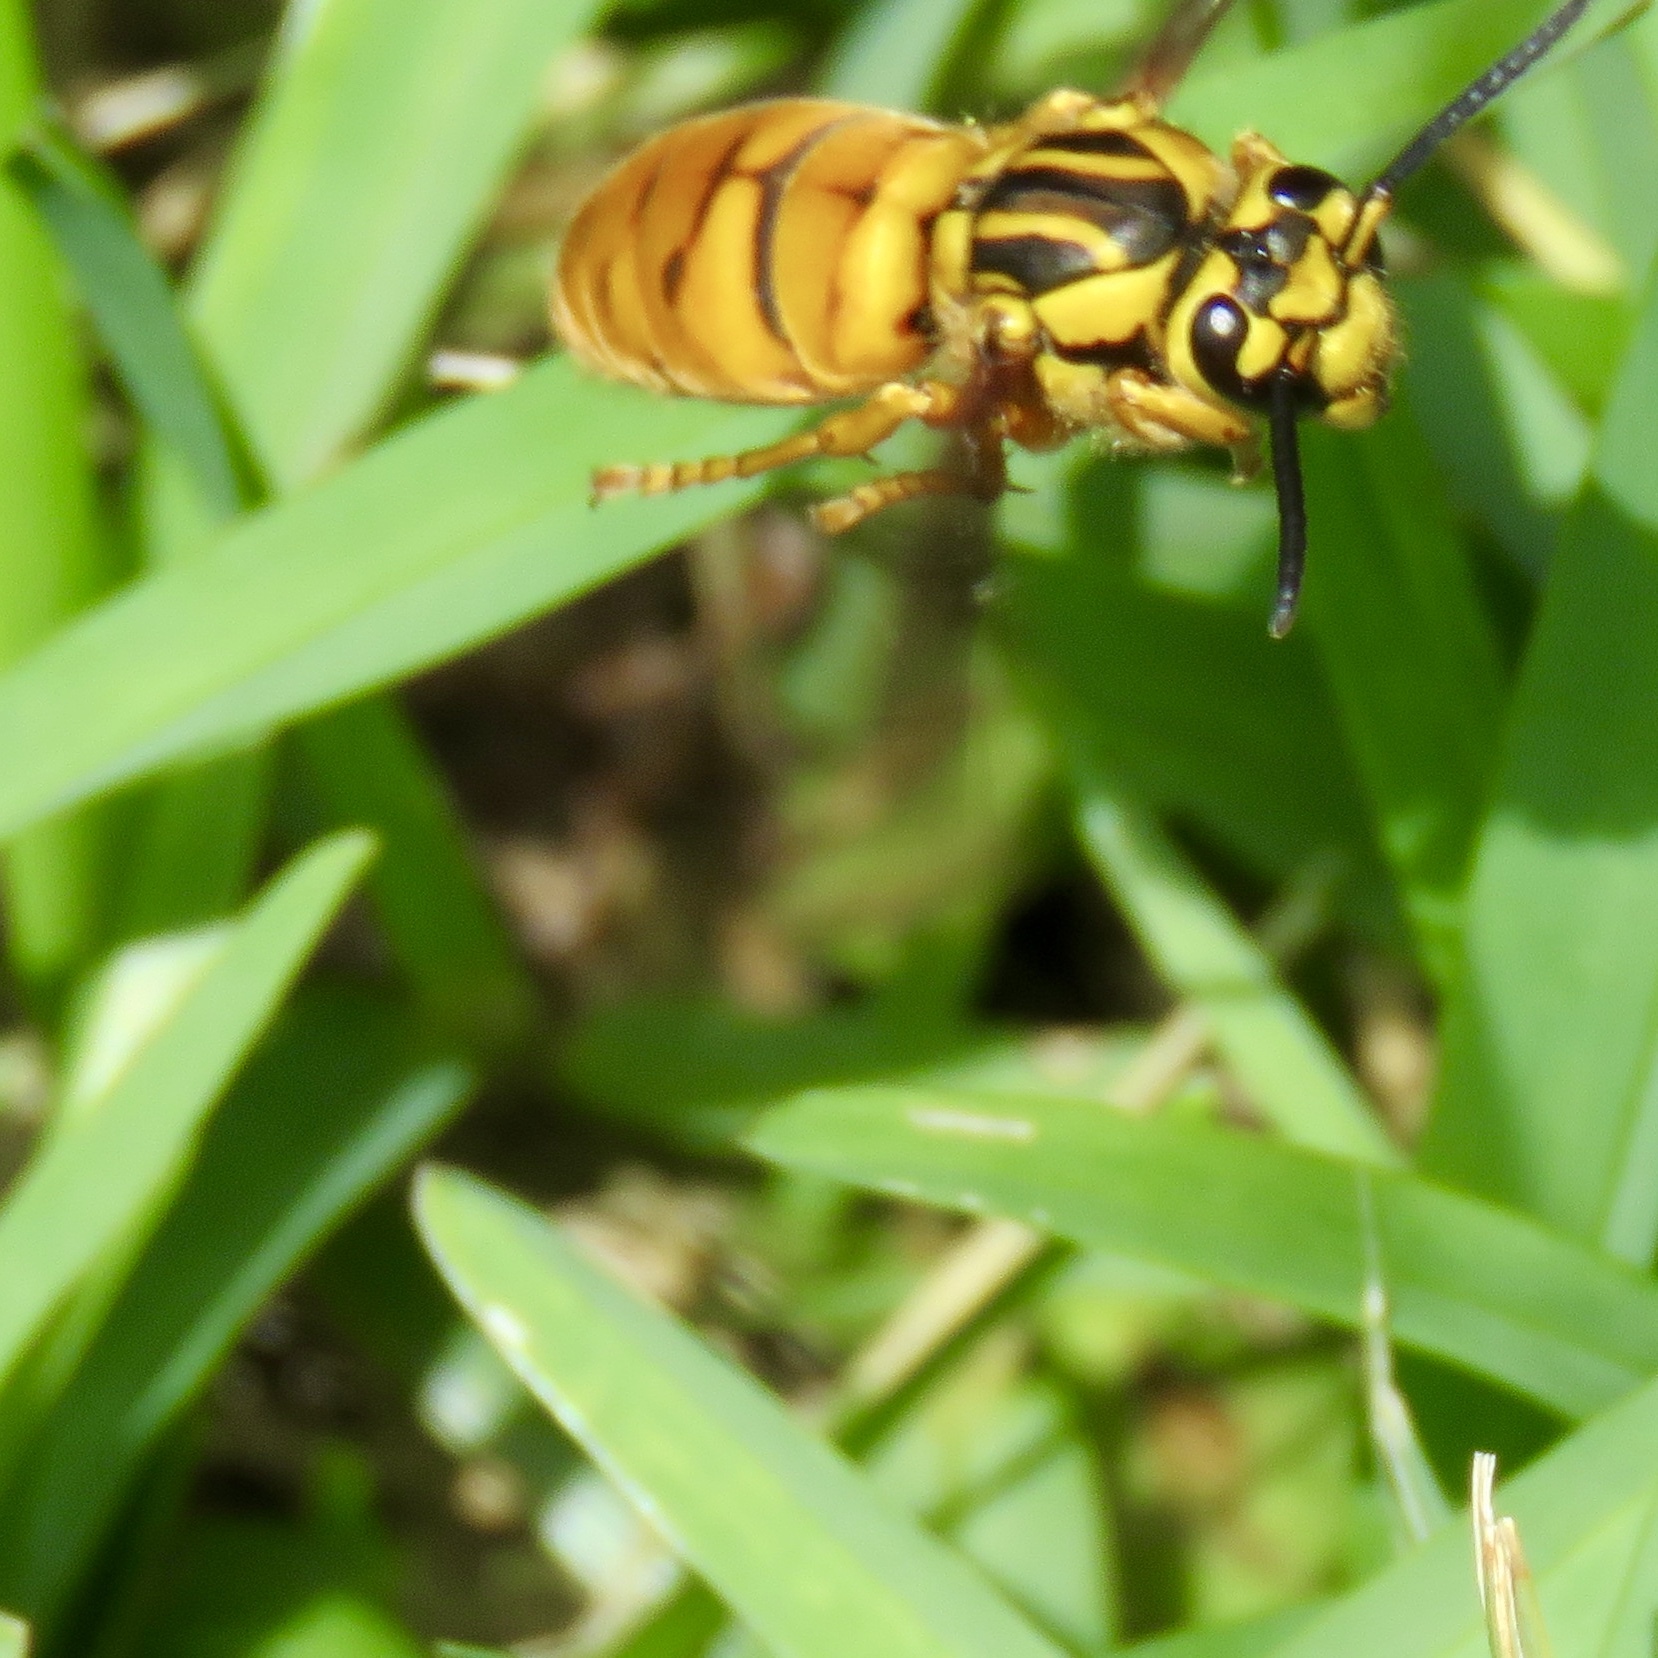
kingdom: Animalia
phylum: Arthropoda
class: Insecta
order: Hymenoptera
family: Vespidae
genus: Vespula
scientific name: Vespula squamosa
